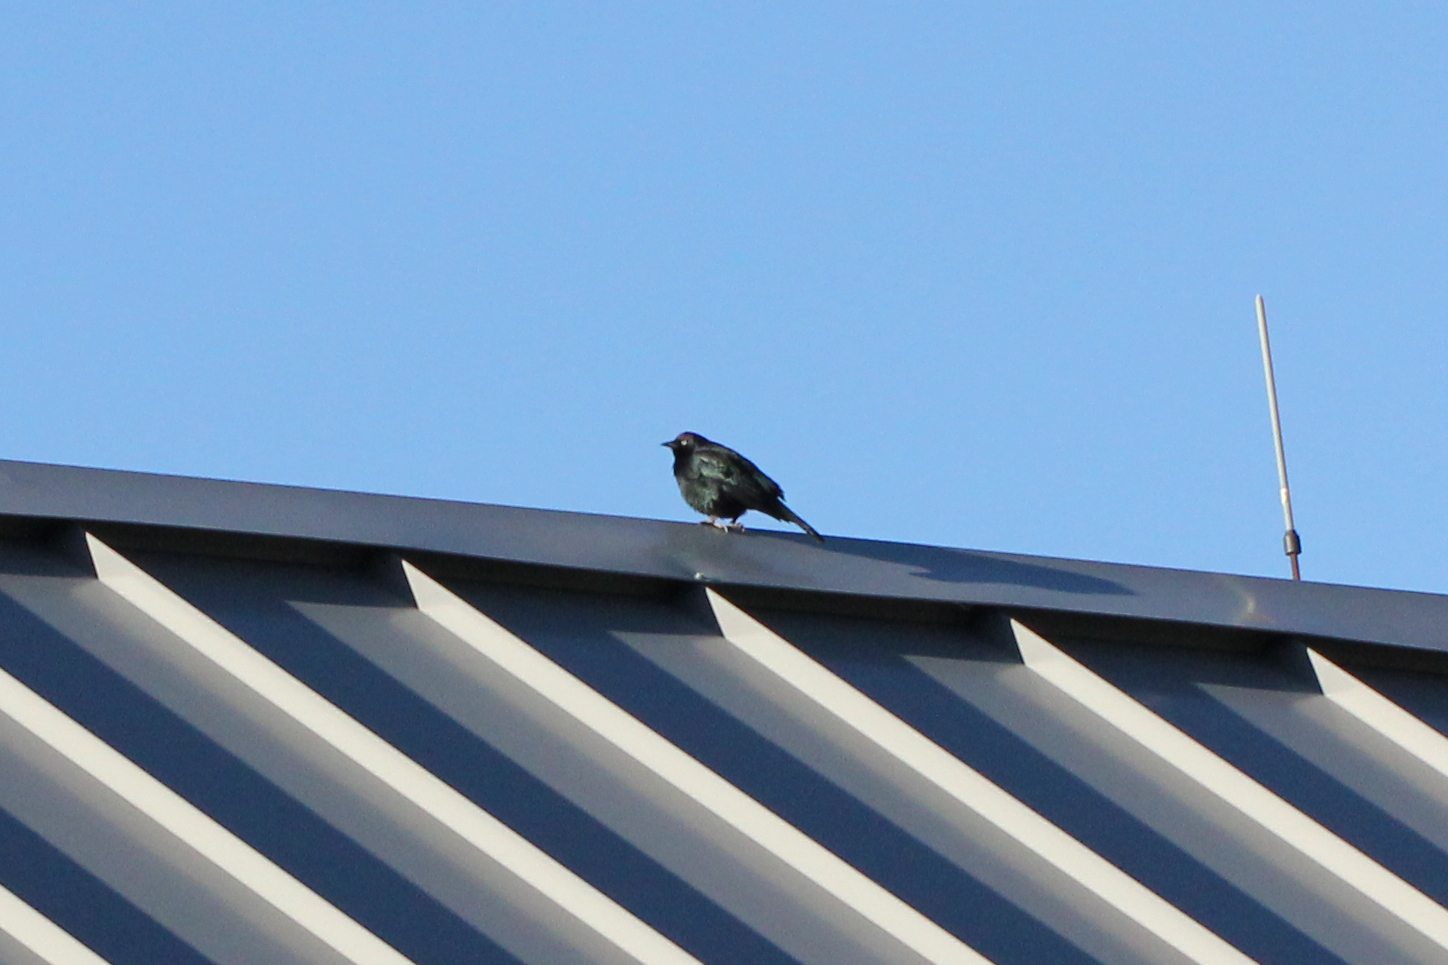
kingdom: Animalia
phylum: Chordata
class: Aves
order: Passeriformes
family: Icteridae
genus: Euphagus
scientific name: Euphagus cyanocephalus
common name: Brewer's blackbird
